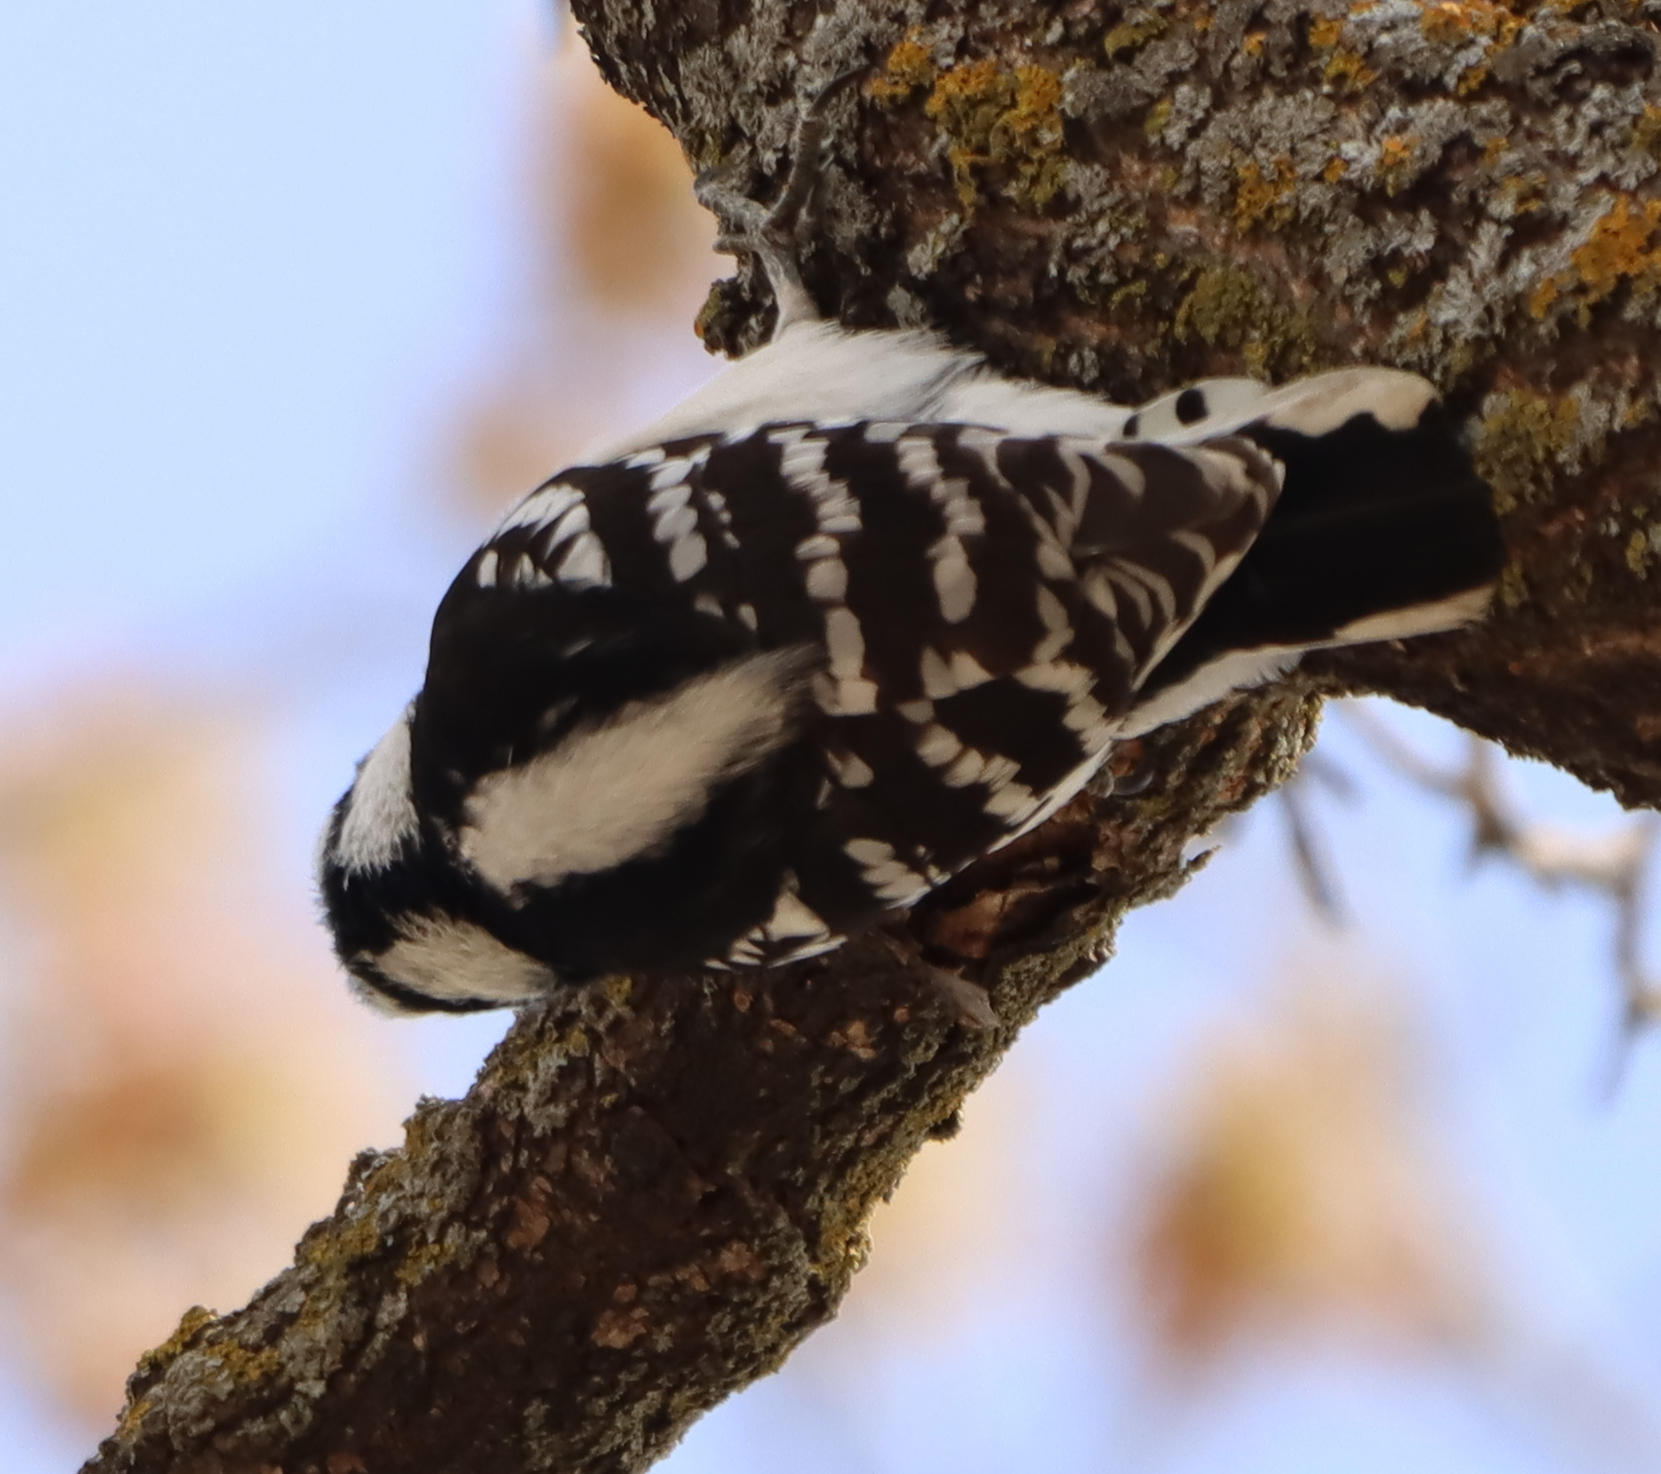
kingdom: Animalia
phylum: Chordata
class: Aves
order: Piciformes
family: Picidae
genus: Dryobates
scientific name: Dryobates pubescens
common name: Downy woodpecker
